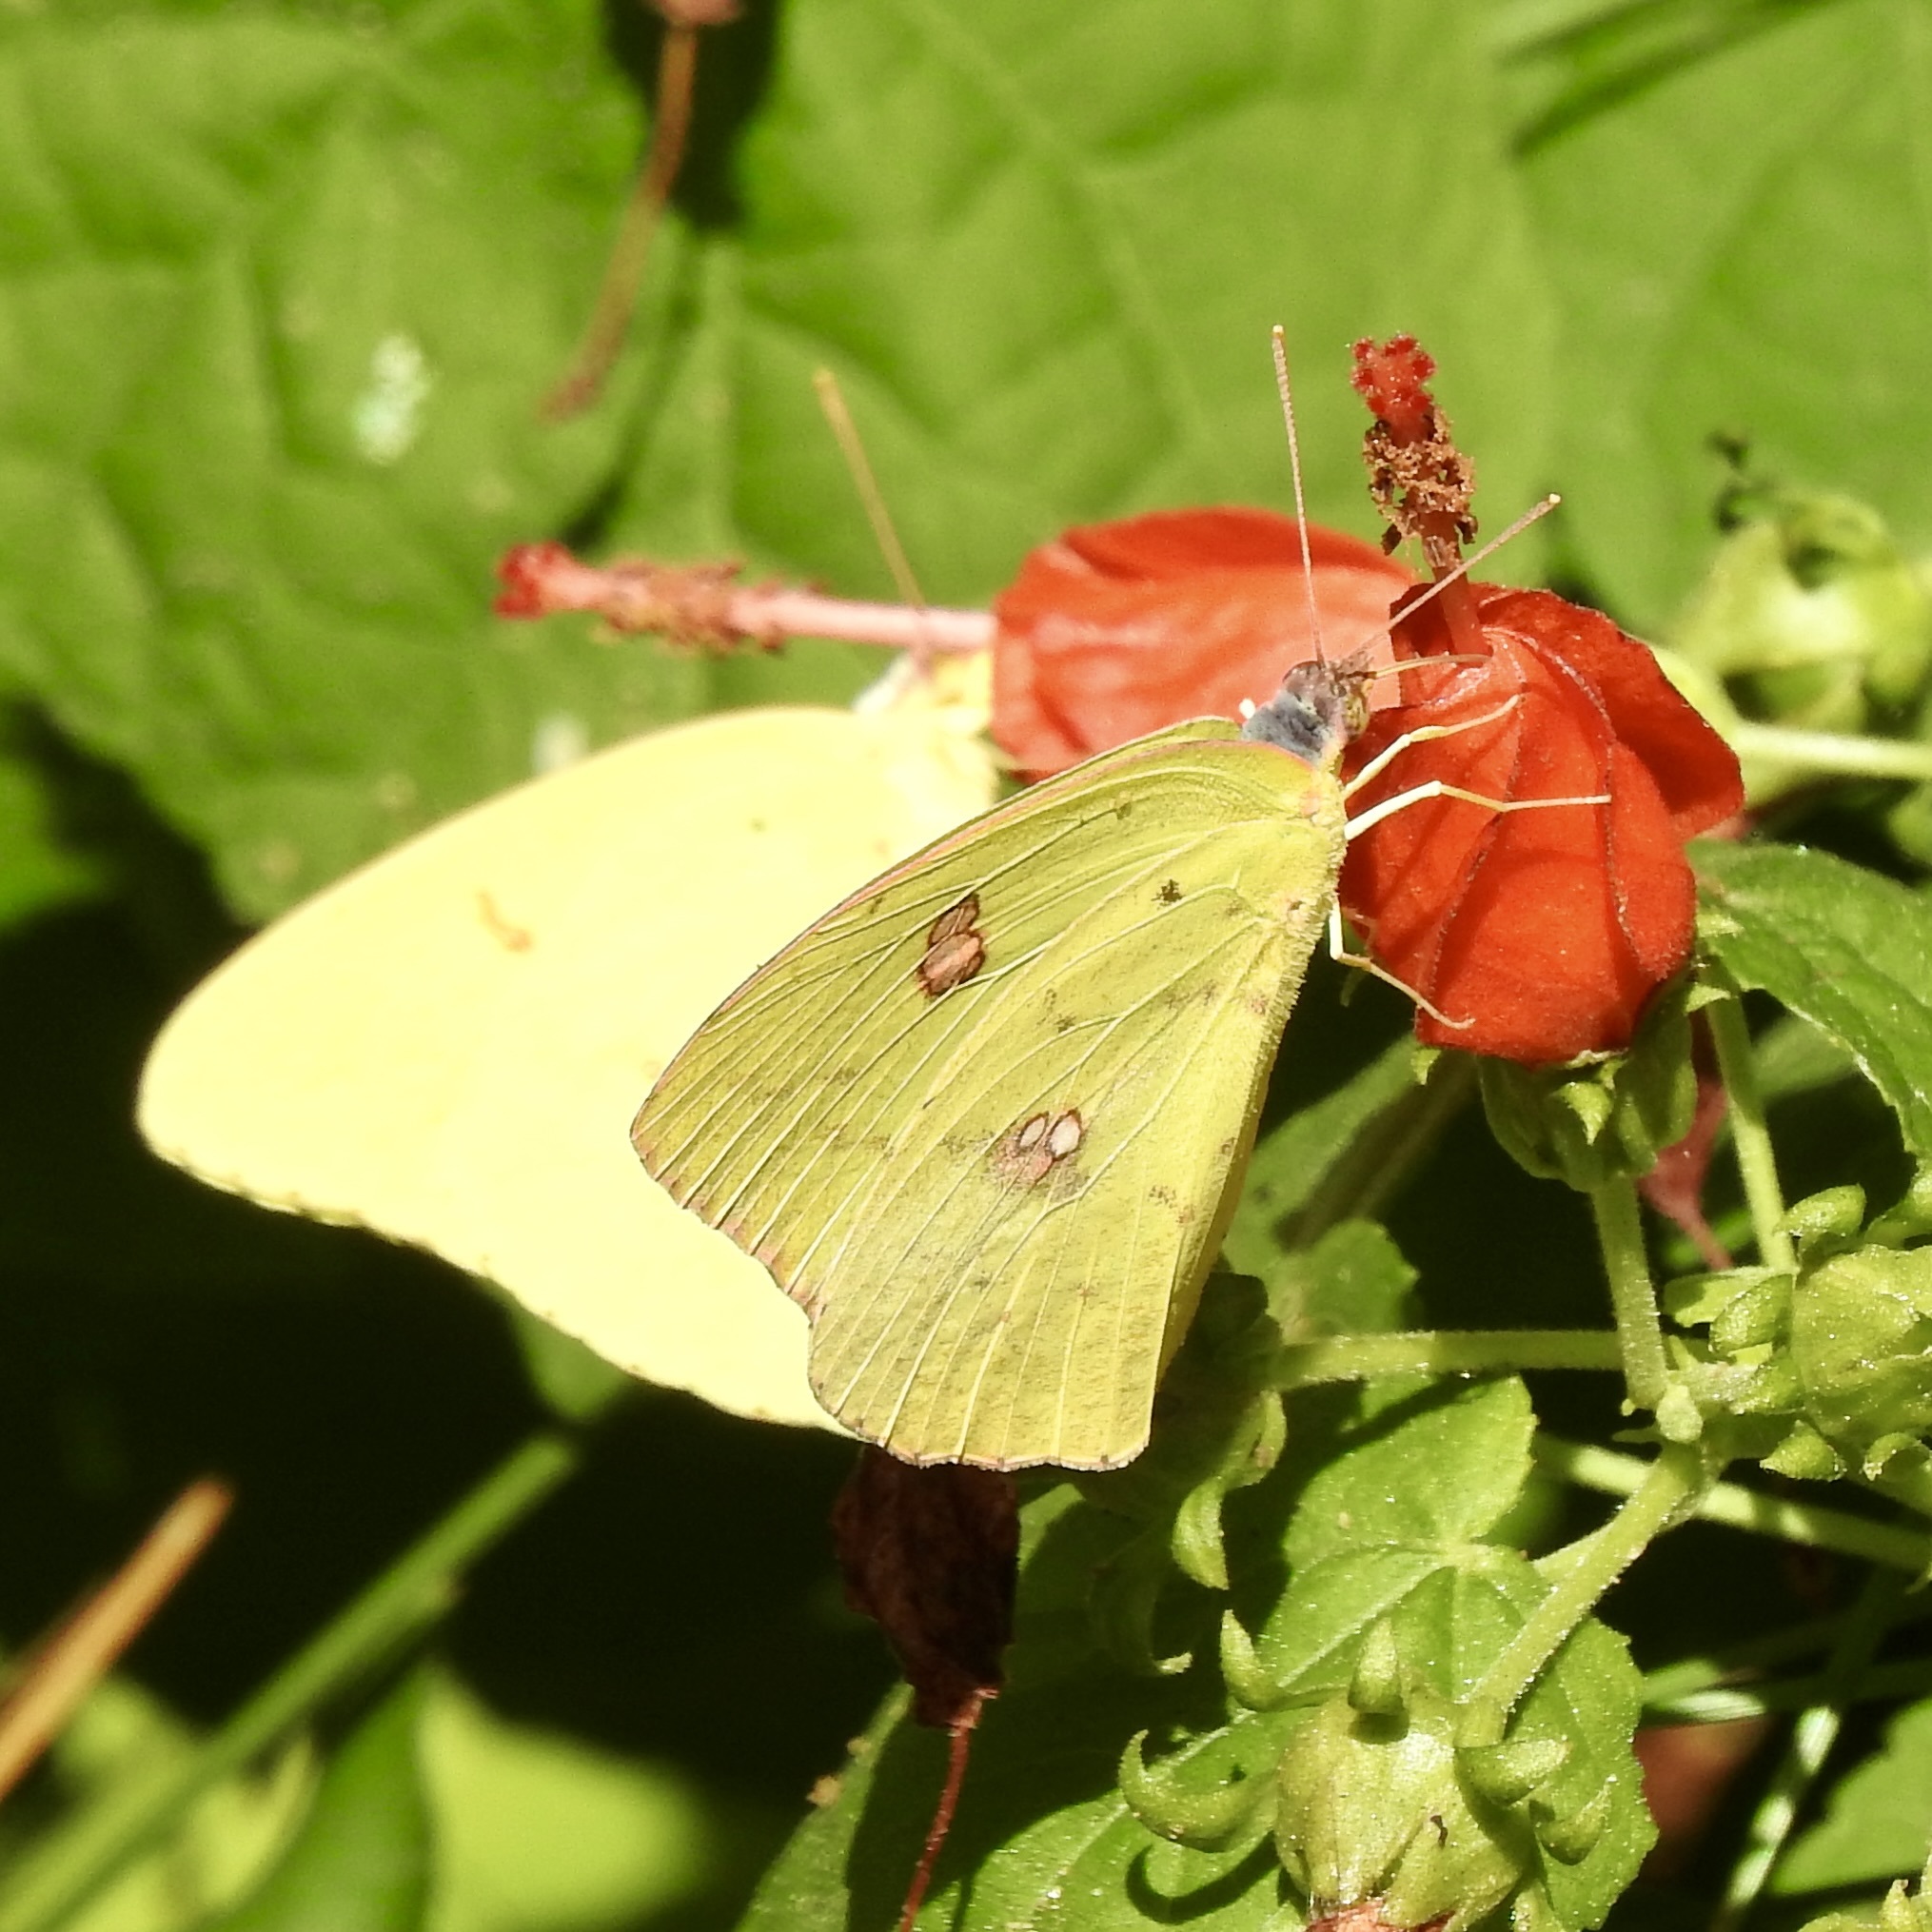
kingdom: Animalia
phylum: Arthropoda
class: Insecta
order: Lepidoptera
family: Pieridae
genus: Phoebis
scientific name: Phoebis sennae
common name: Cloudless sulphur
